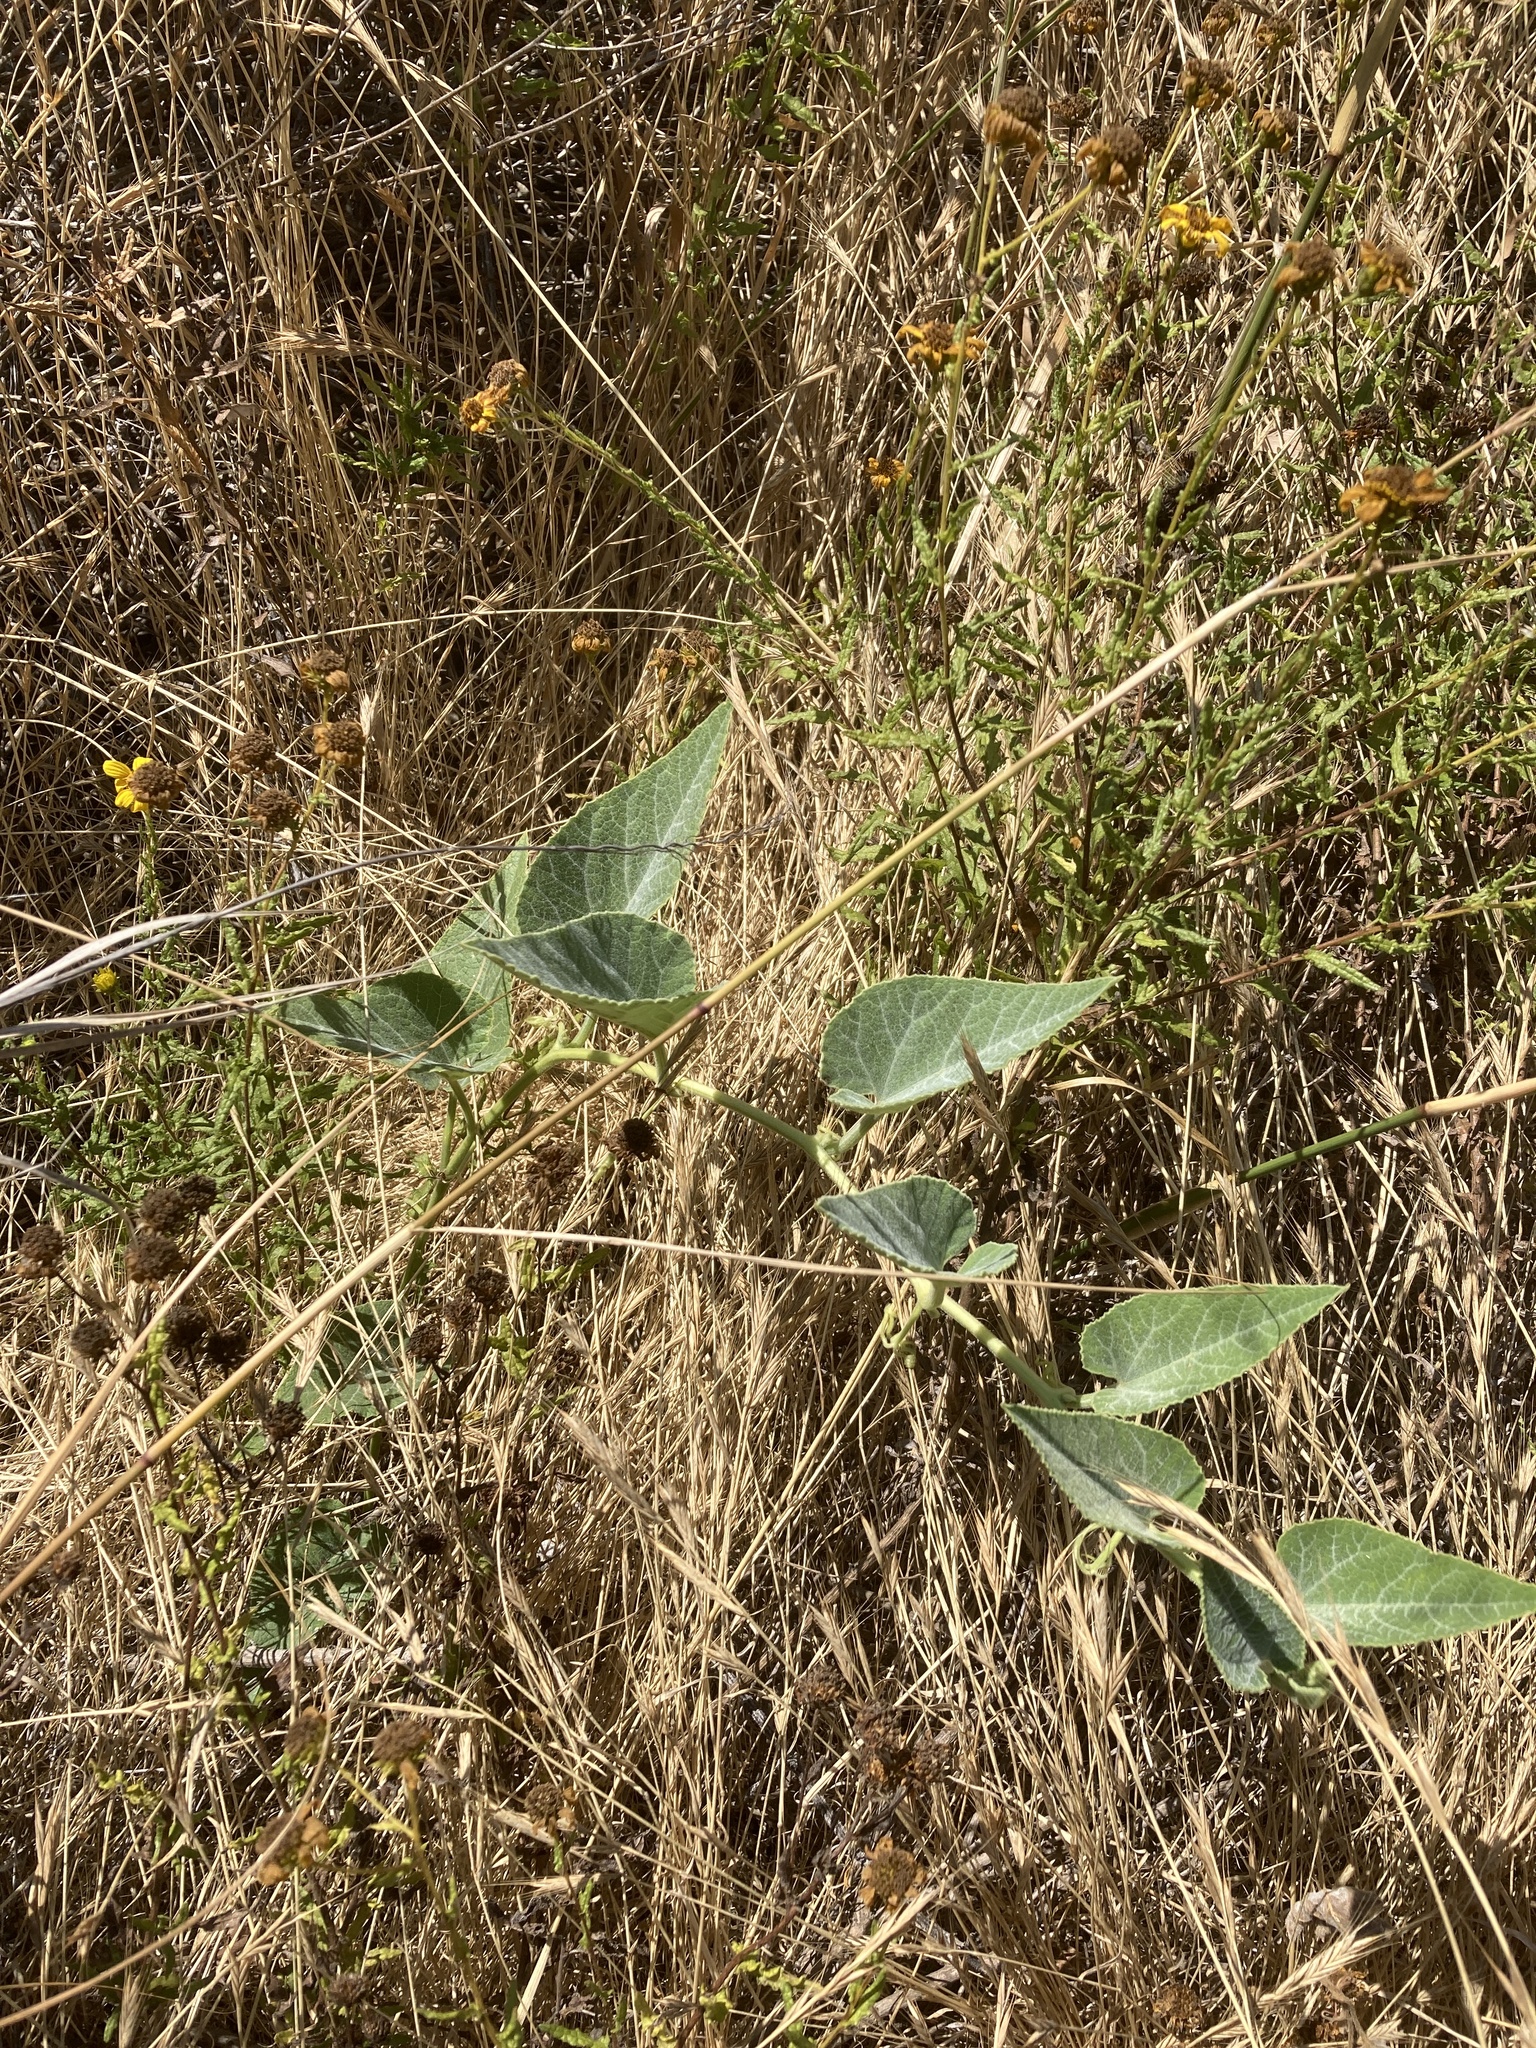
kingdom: Plantae
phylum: Tracheophyta
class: Magnoliopsida
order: Cucurbitales
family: Cucurbitaceae
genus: Cucurbita
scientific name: Cucurbita foetidissima
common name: Buffalo gourd
